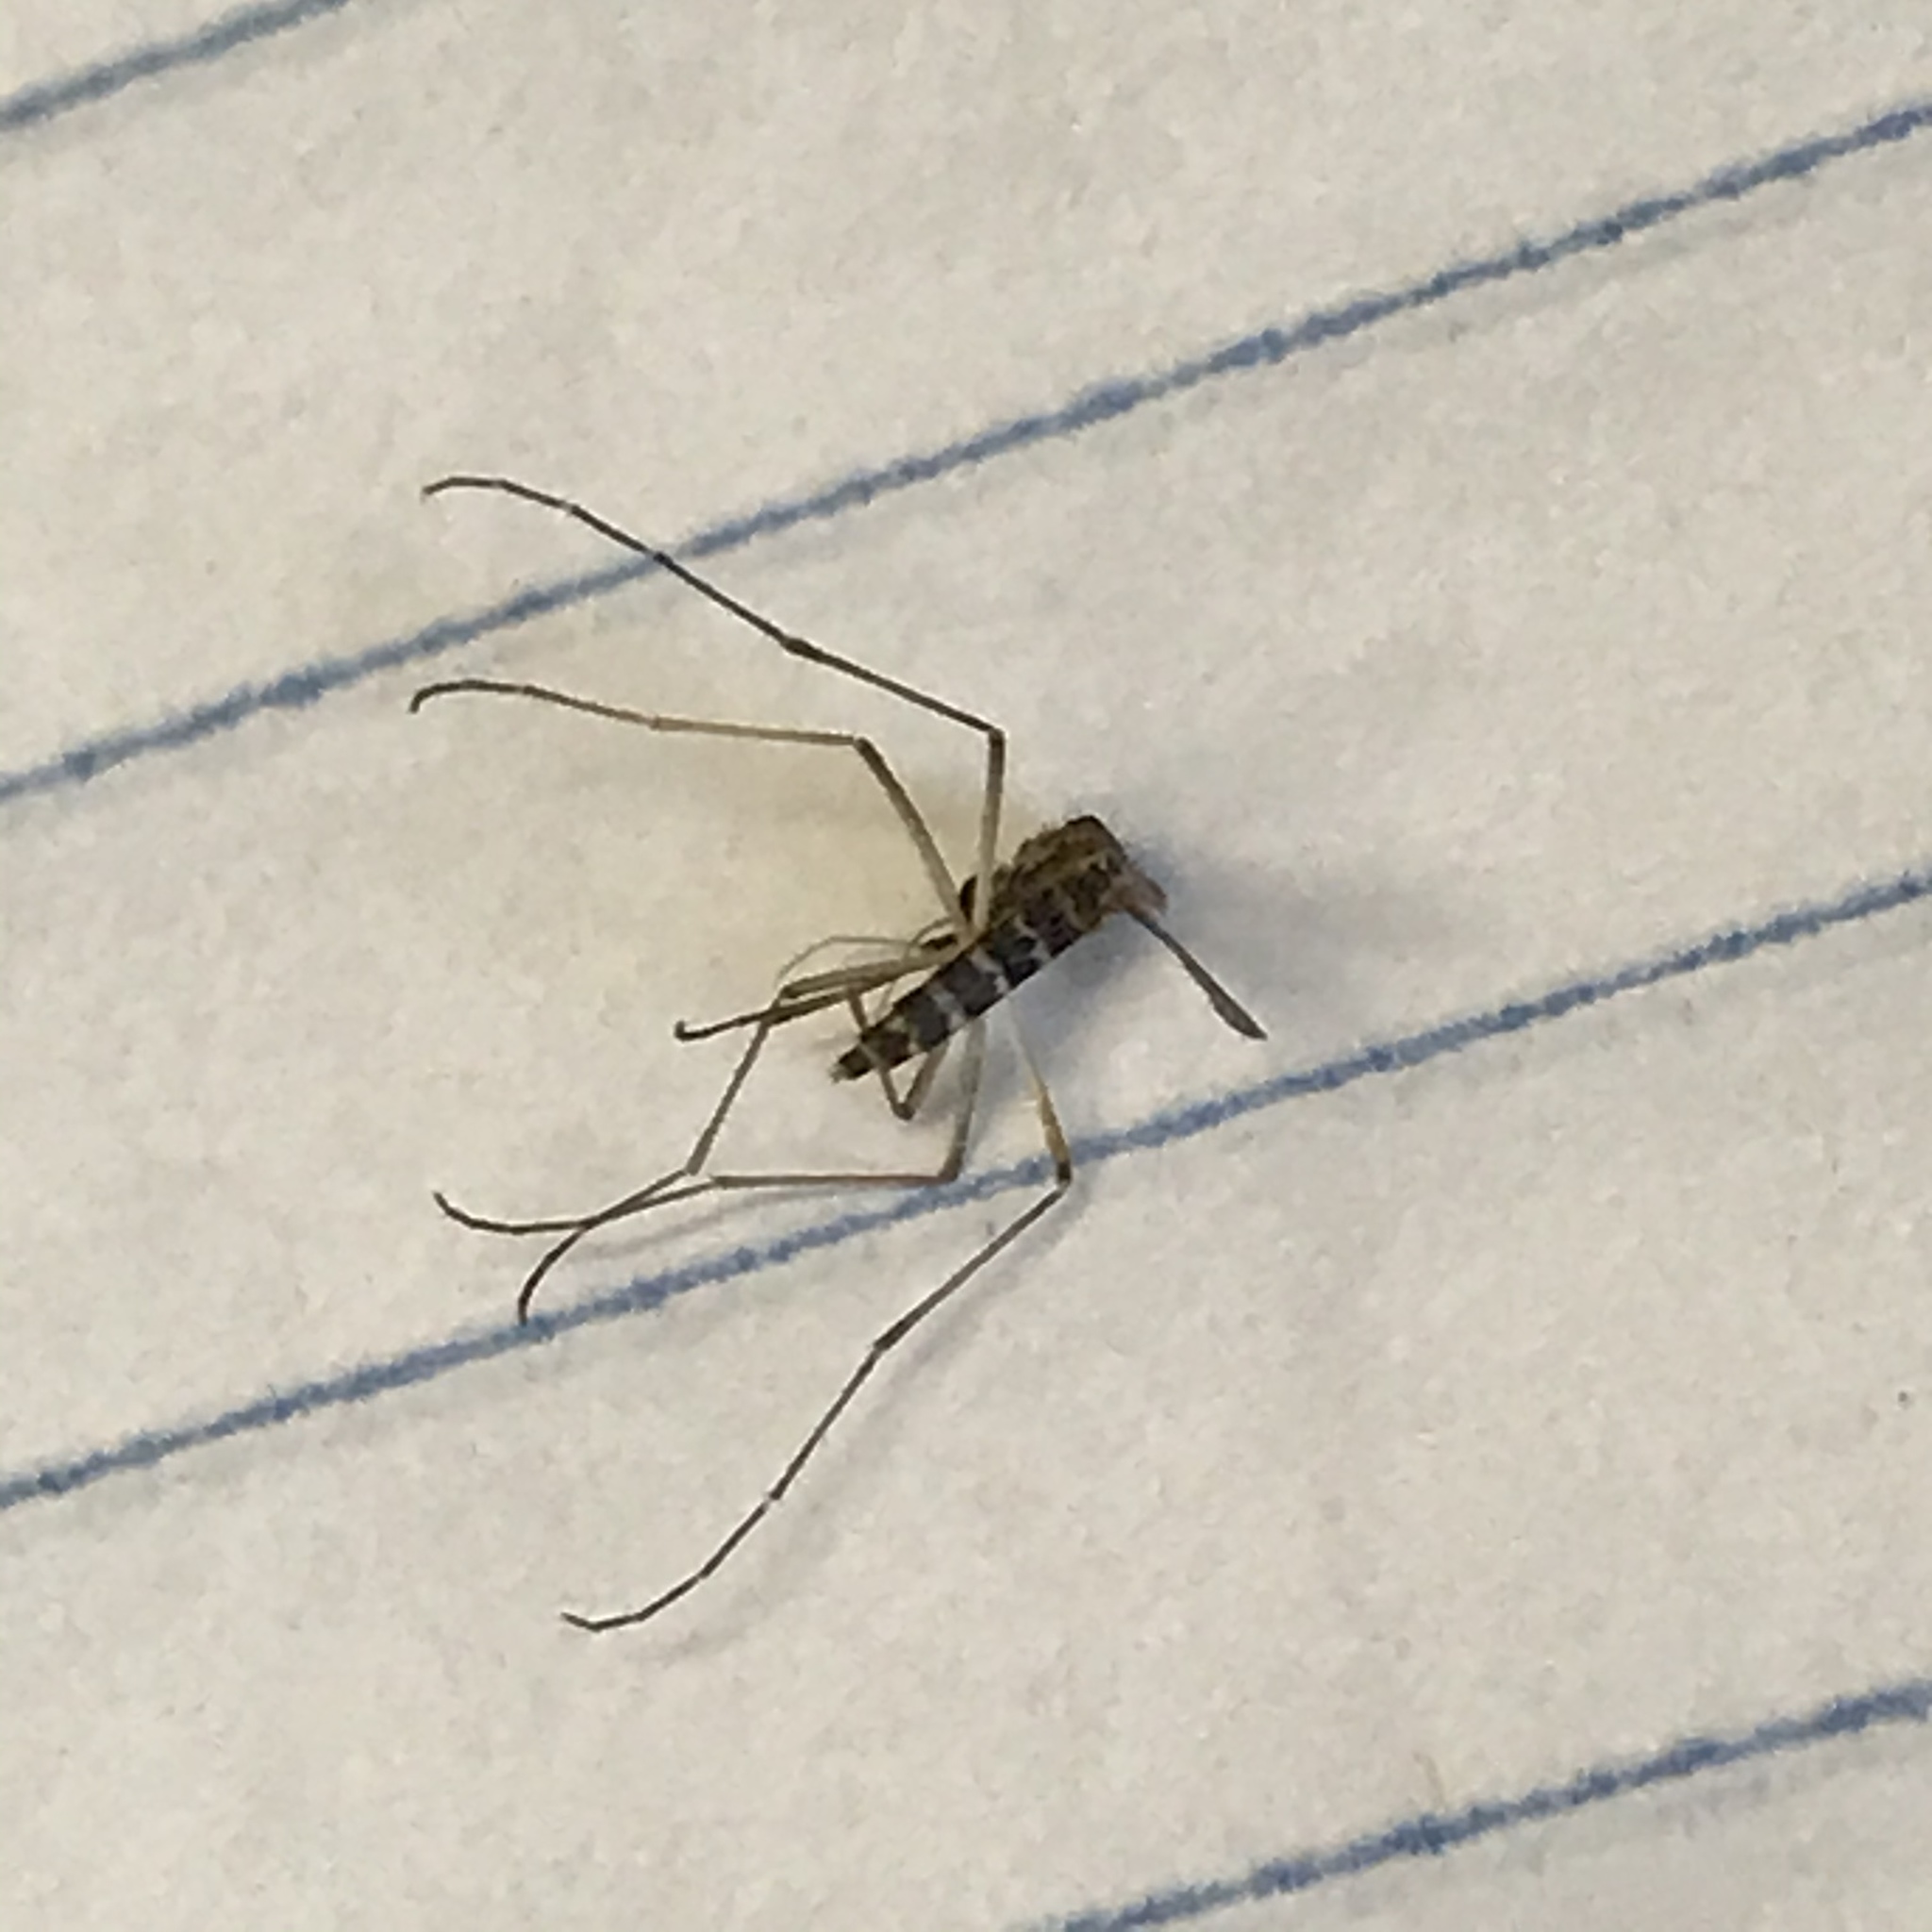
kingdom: Animalia
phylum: Arthropoda
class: Insecta
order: Diptera
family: Culicidae
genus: Aedes
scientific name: Aedes vexans
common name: Inland floodwater mosquito
